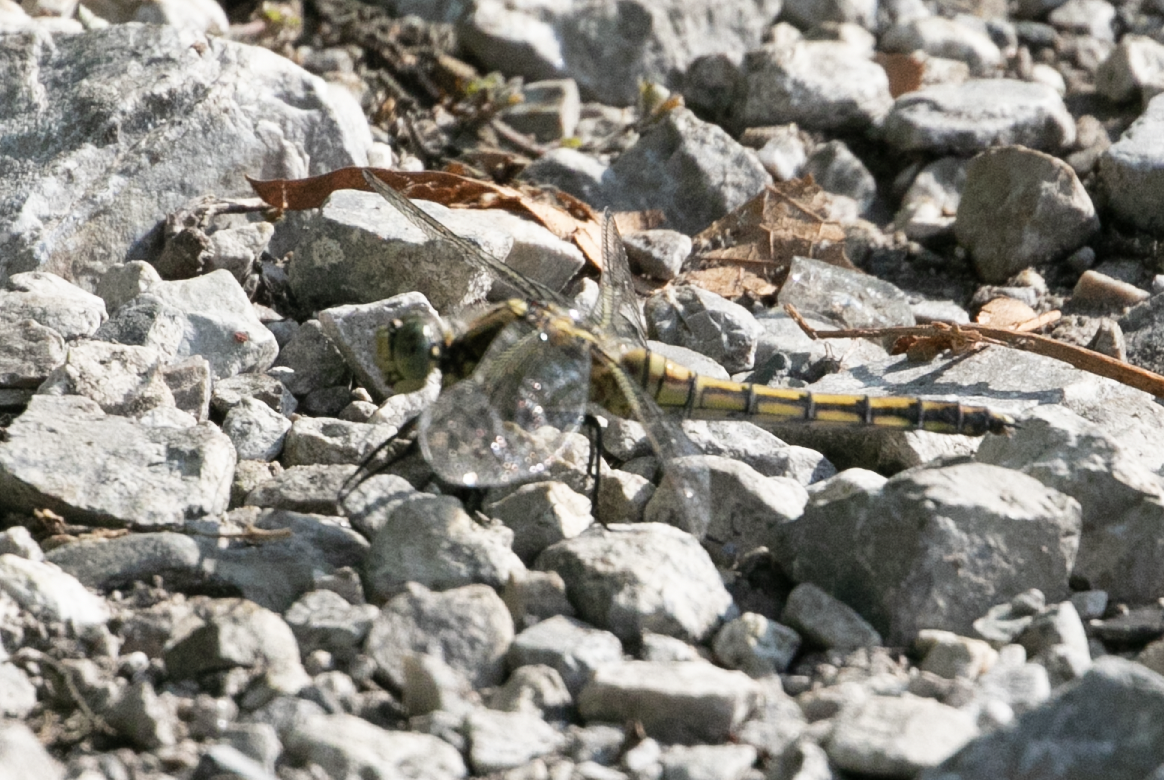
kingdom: Animalia
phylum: Arthropoda
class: Insecta
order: Odonata
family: Libellulidae
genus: Orthetrum
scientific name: Orthetrum cancellatum
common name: Black-tailed skimmer
